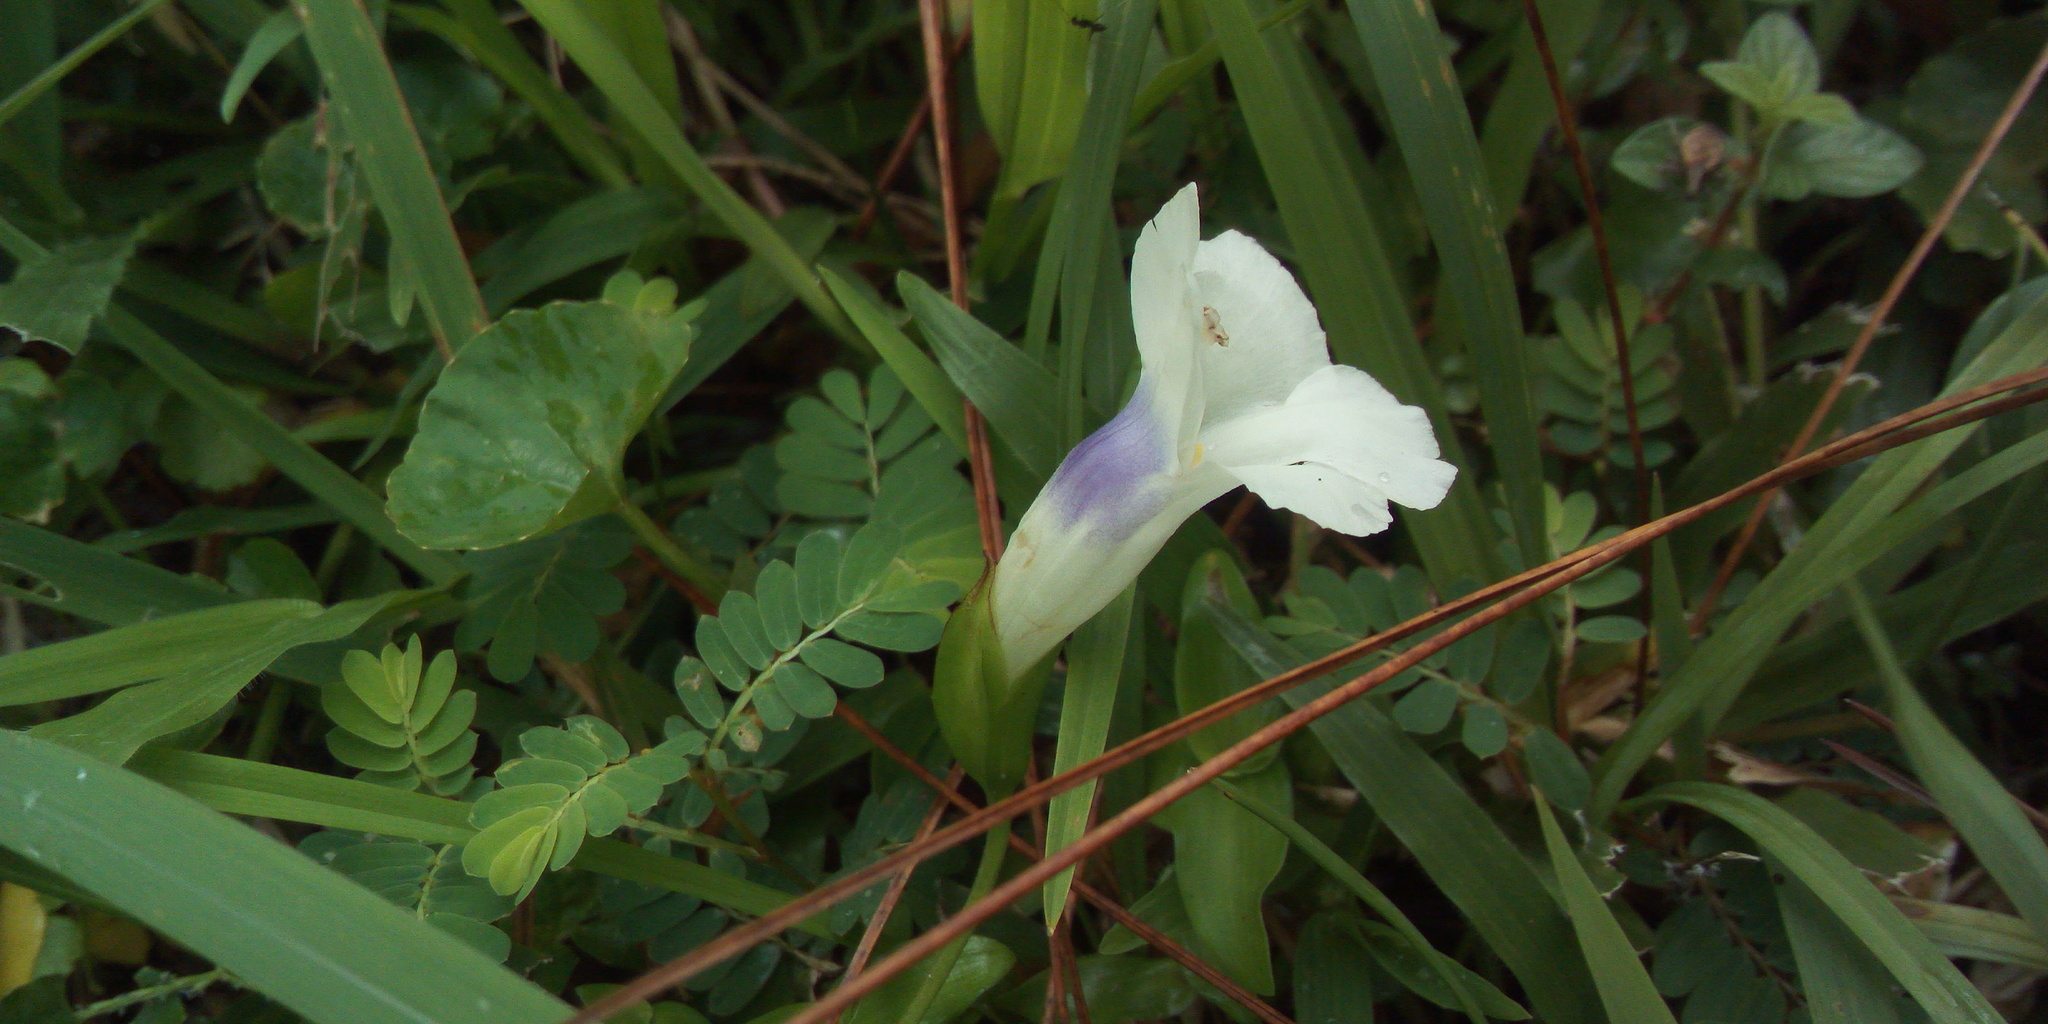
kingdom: Plantae
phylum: Tracheophyta
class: Magnoliopsida
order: Lamiales
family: Linderniaceae
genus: Torenia
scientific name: Torenia concolor
